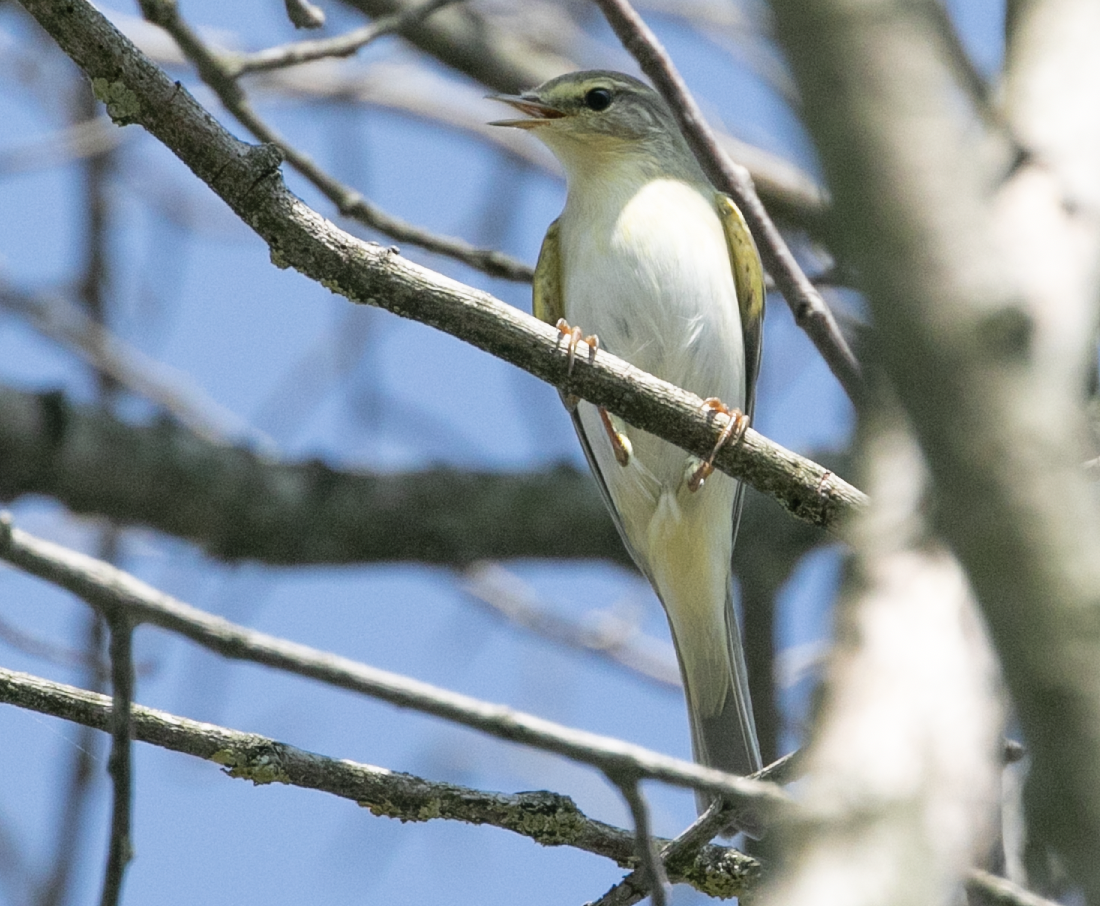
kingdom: Animalia
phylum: Chordata
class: Aves
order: Passeriformes
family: Phylloscopidae
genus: Phylloscopus
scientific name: Phylloscopus sibillatrix
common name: Wood warbler
